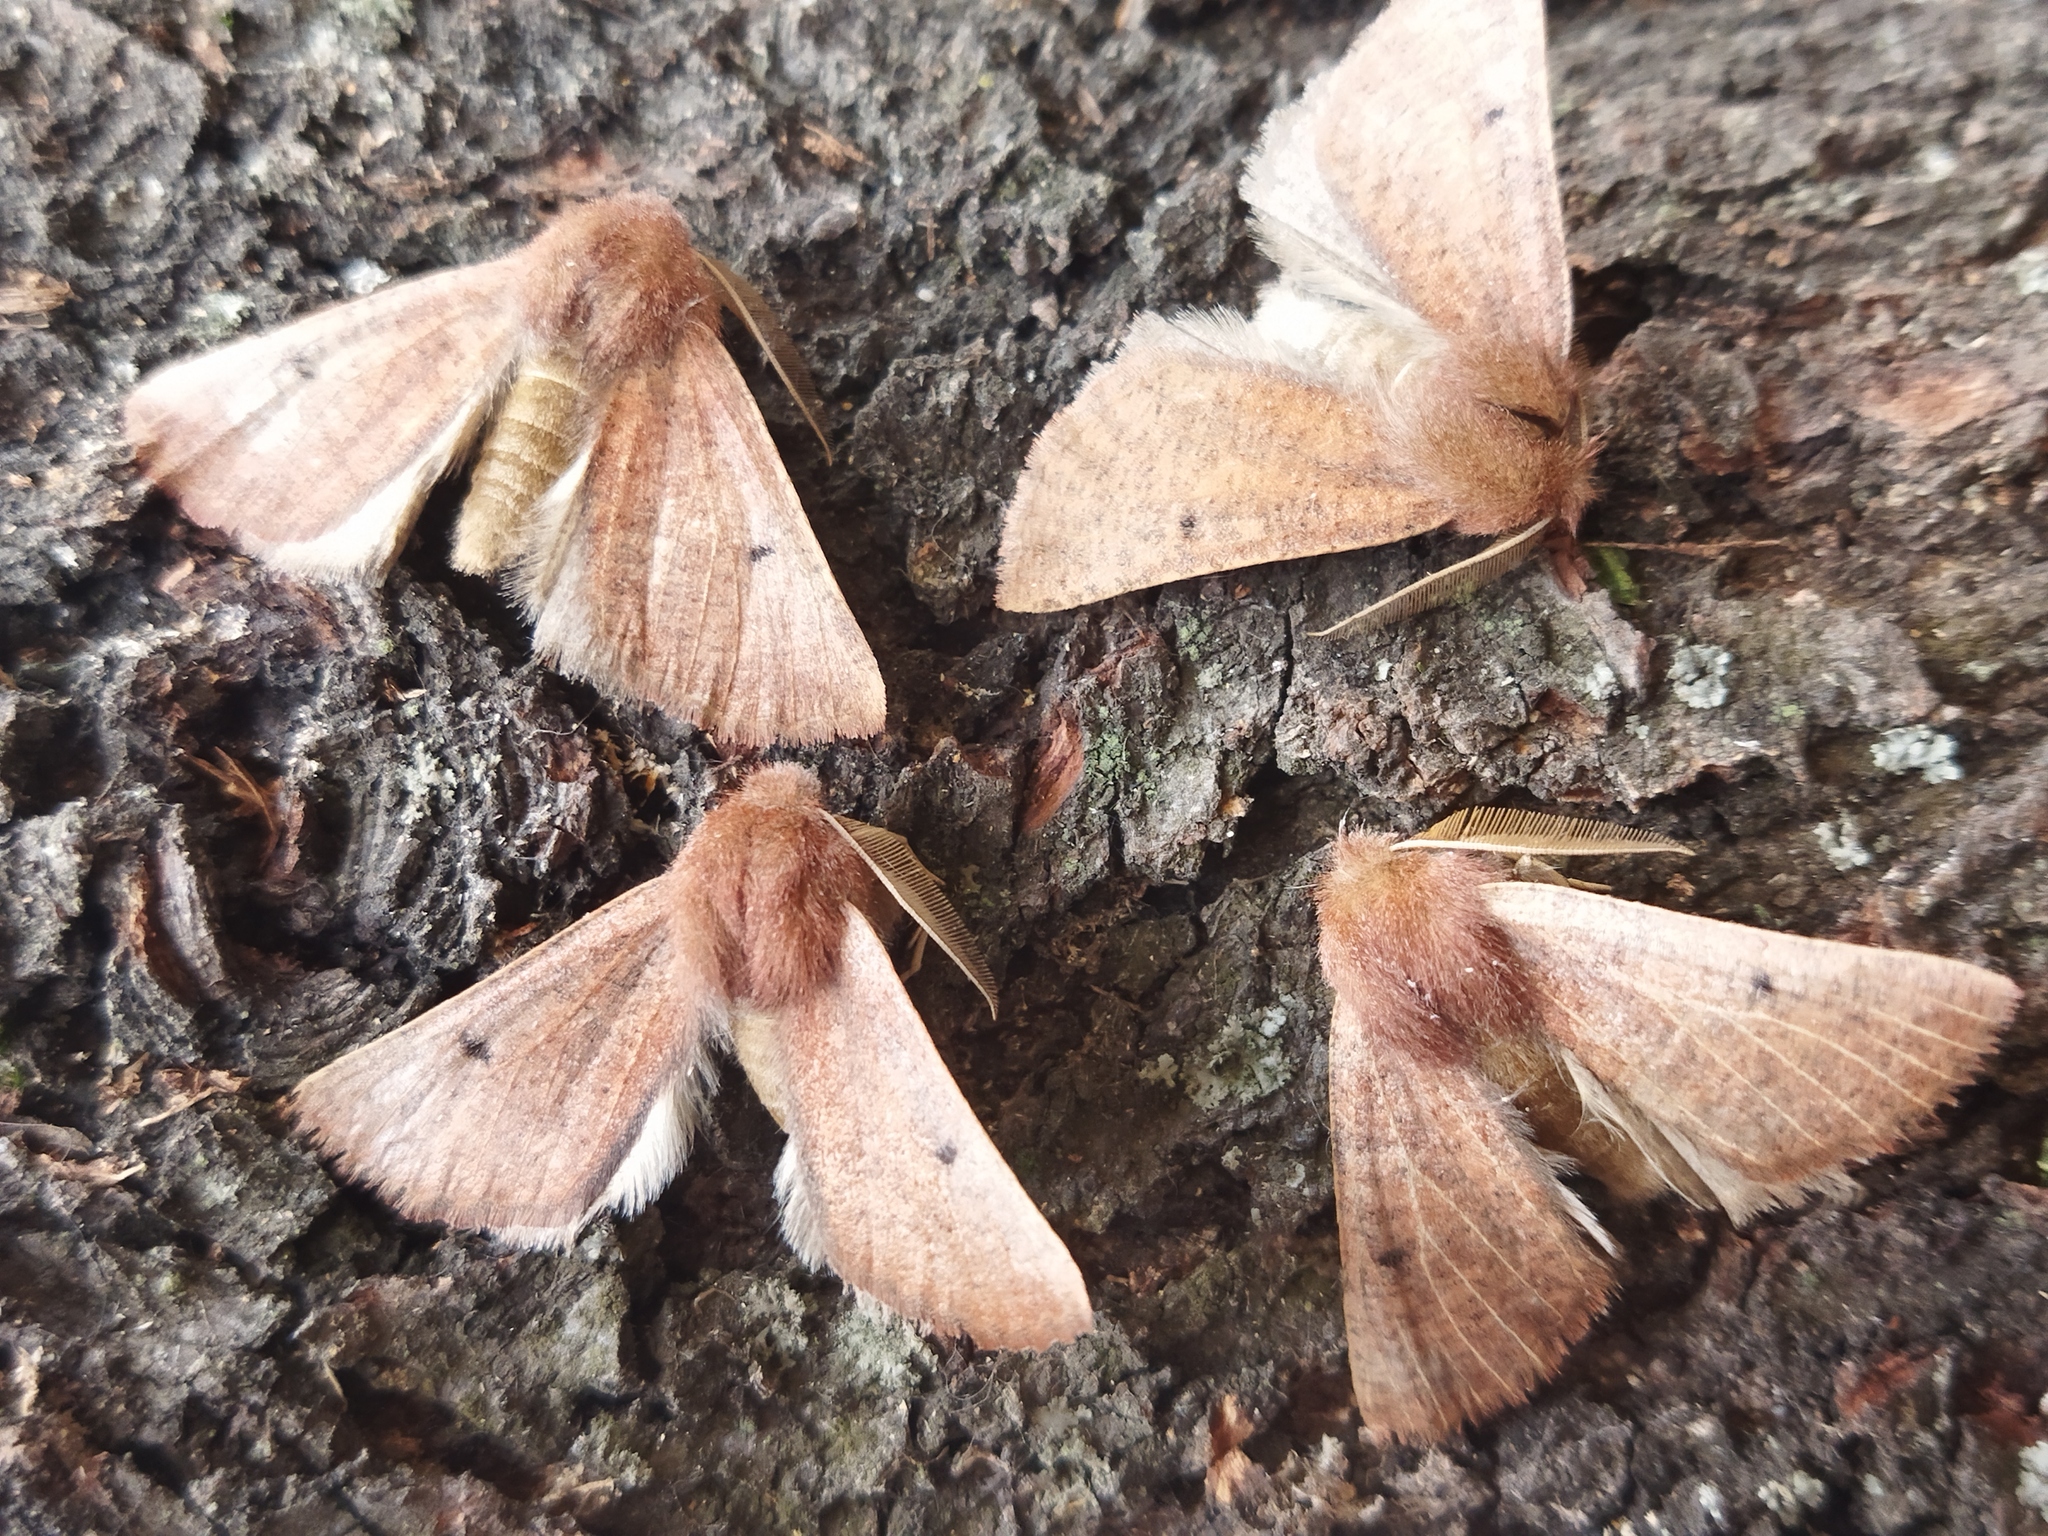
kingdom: Animalia
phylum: Arthropoda
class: Insecta
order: Lepidoptera
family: Geometridae
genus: Dasycorsa
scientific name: Dasycorsa modesta
